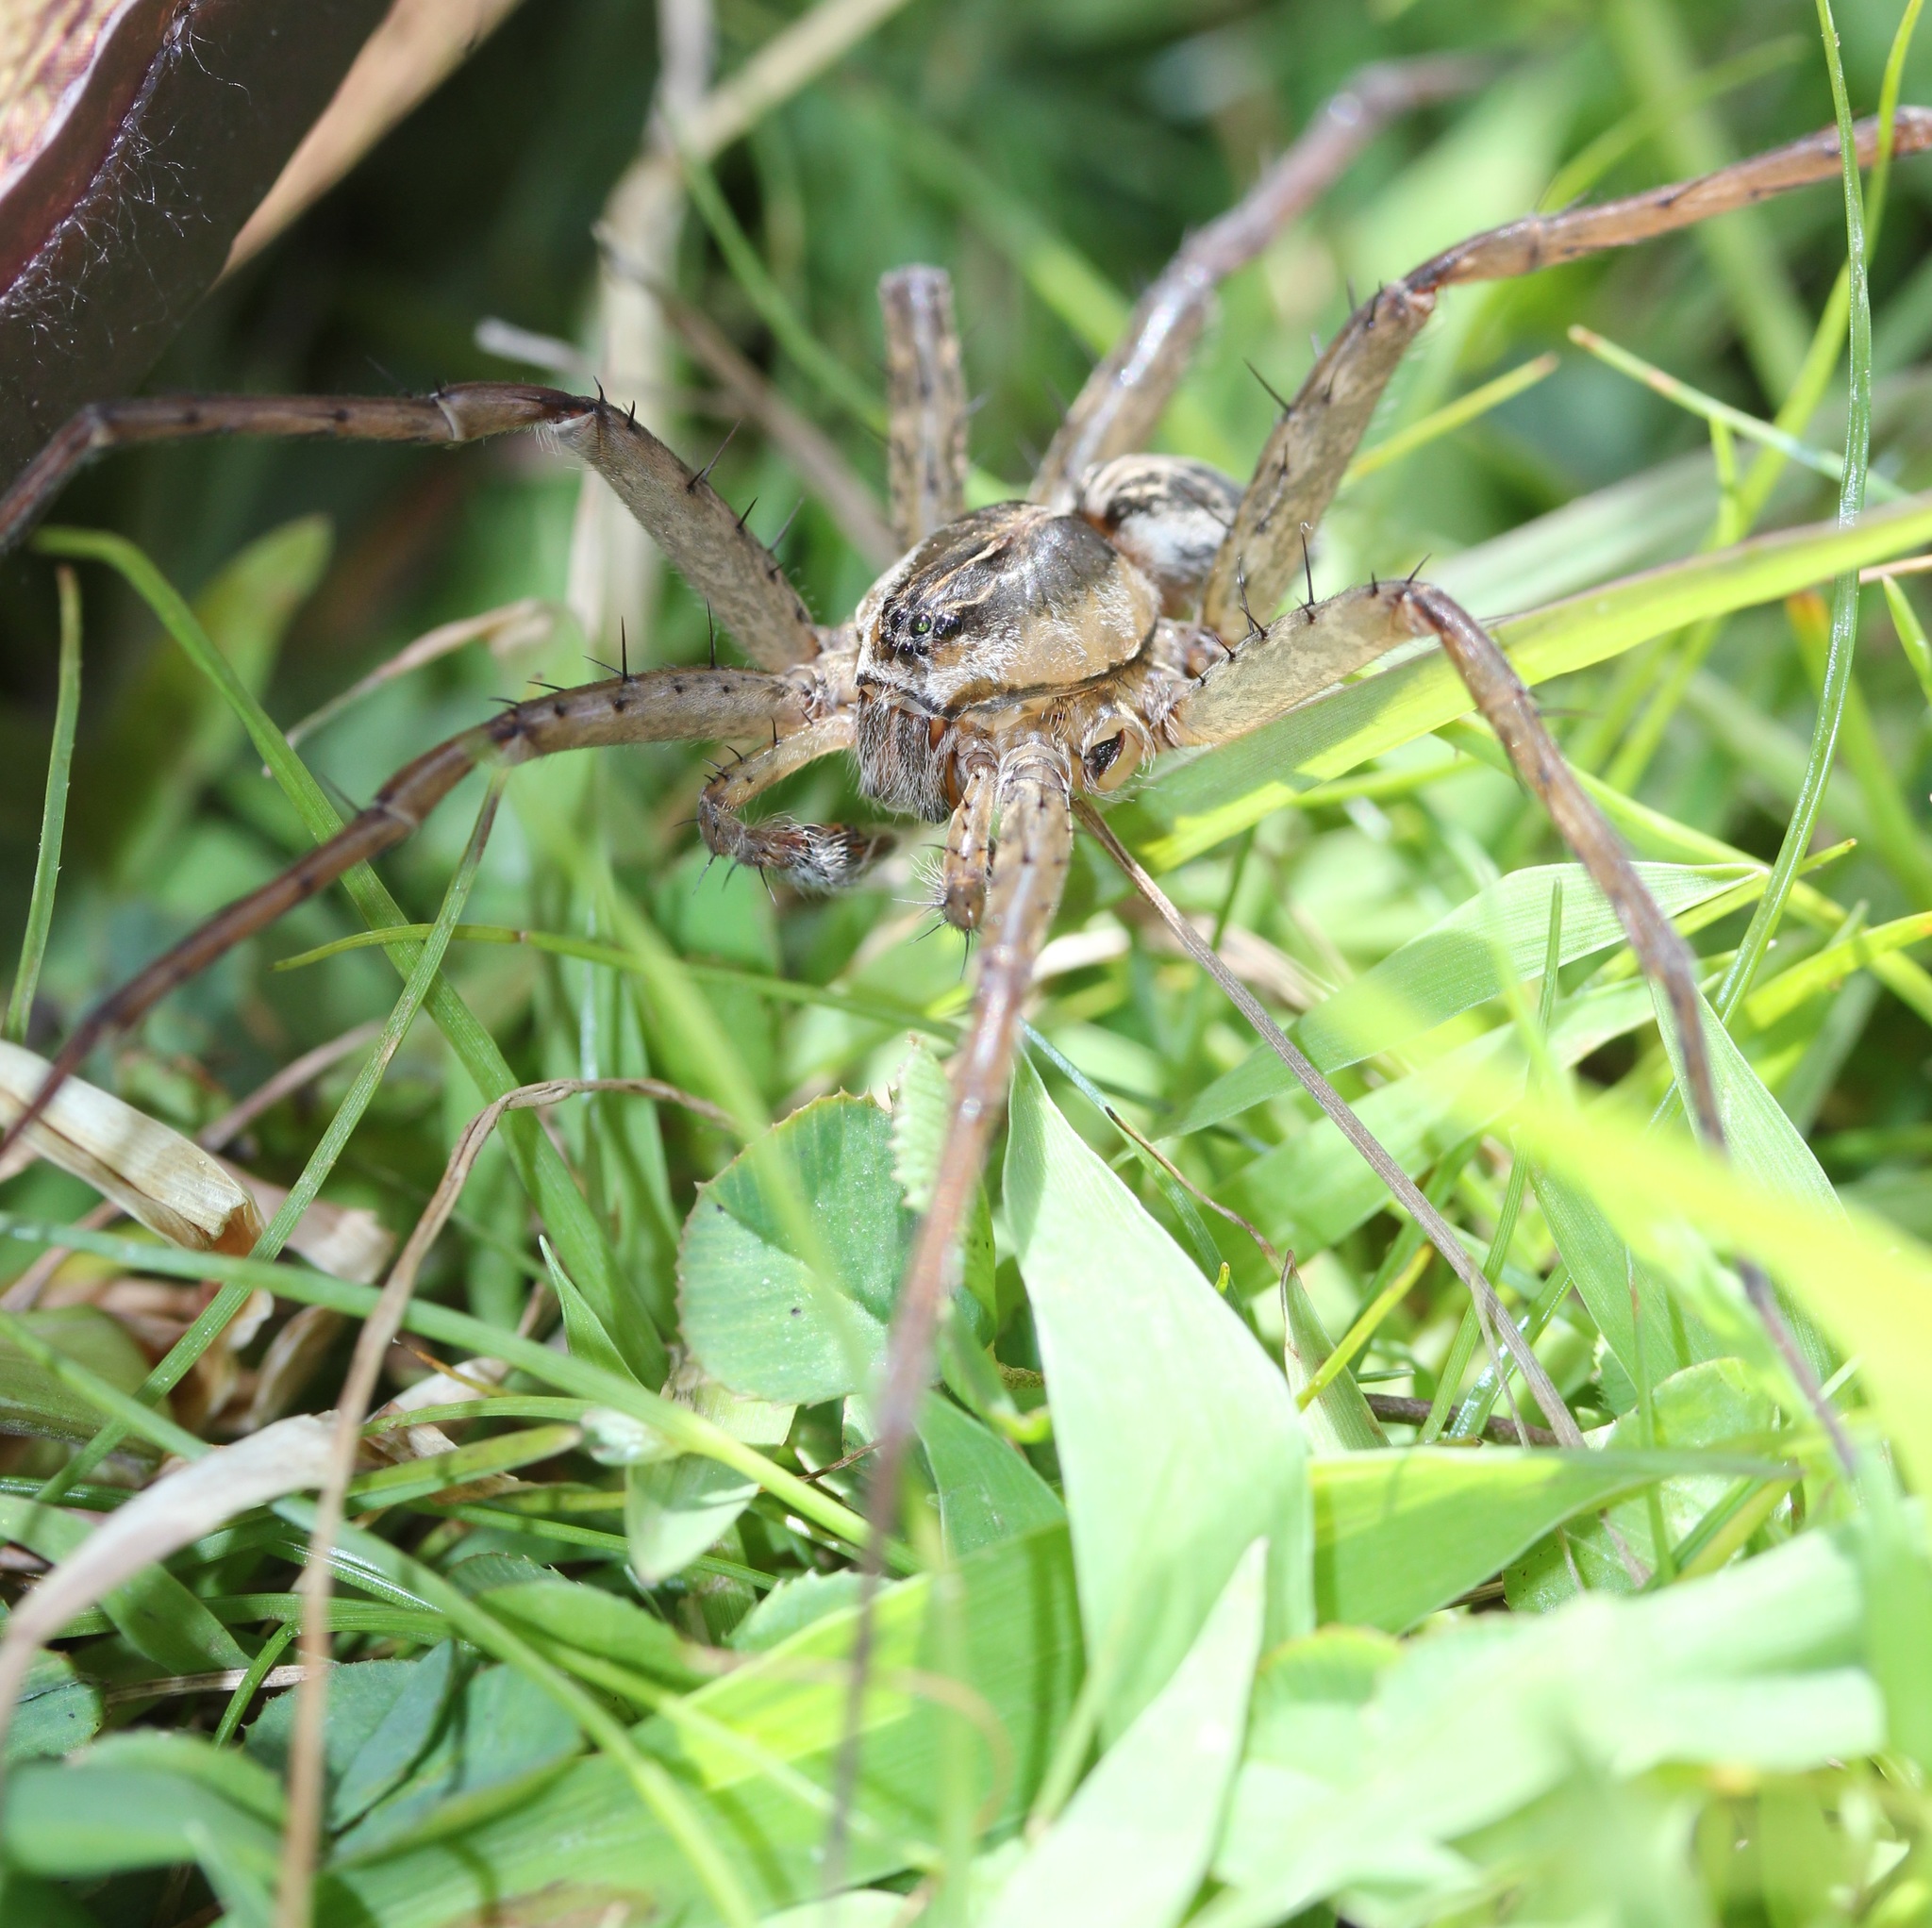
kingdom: Animalia
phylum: Arthropoda
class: Arachnida
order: Araneae
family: Pisauridae
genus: Dolomedes
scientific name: Dolomedes scriptus
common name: Striped fishing spider
